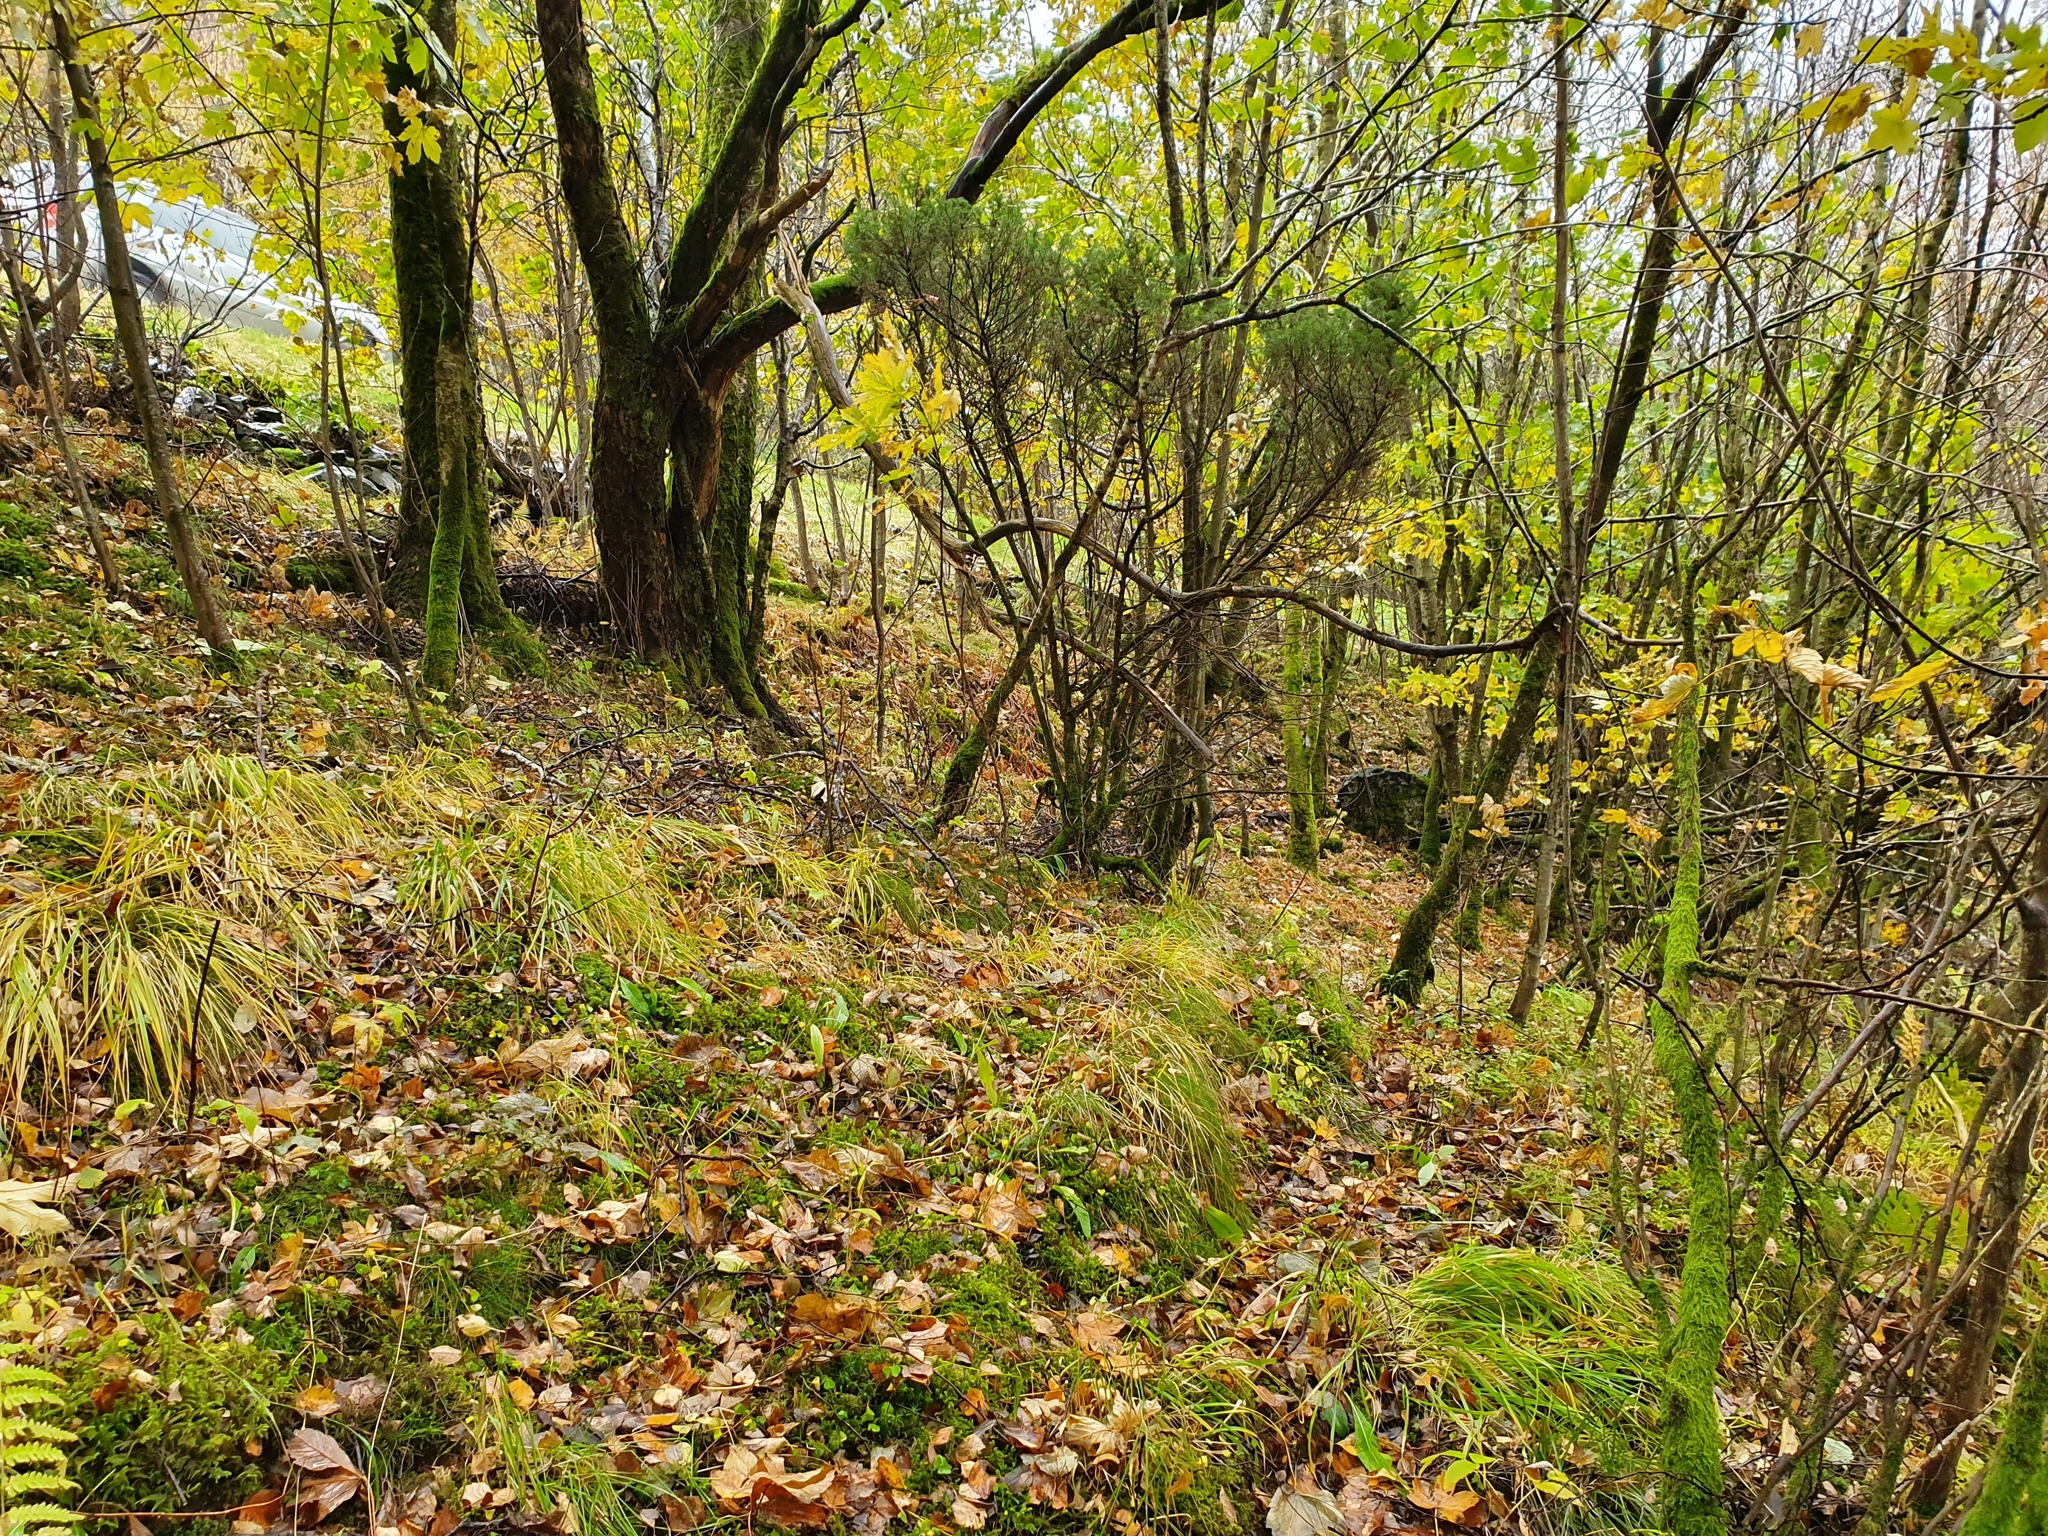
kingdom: Plantae
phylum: Tracheophyta
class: Magnoliopsida
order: Ericales
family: Ericaceae
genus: Vaccinium
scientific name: Vaccinium myrtillus
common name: Bilberry
